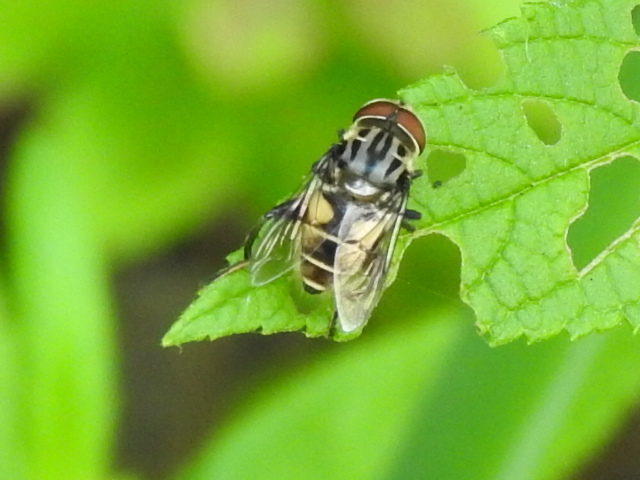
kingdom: Animalia
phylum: Arthropoda
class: Insecta
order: Diptera
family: Syrphidae
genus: Palpada
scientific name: Palpada furcata
